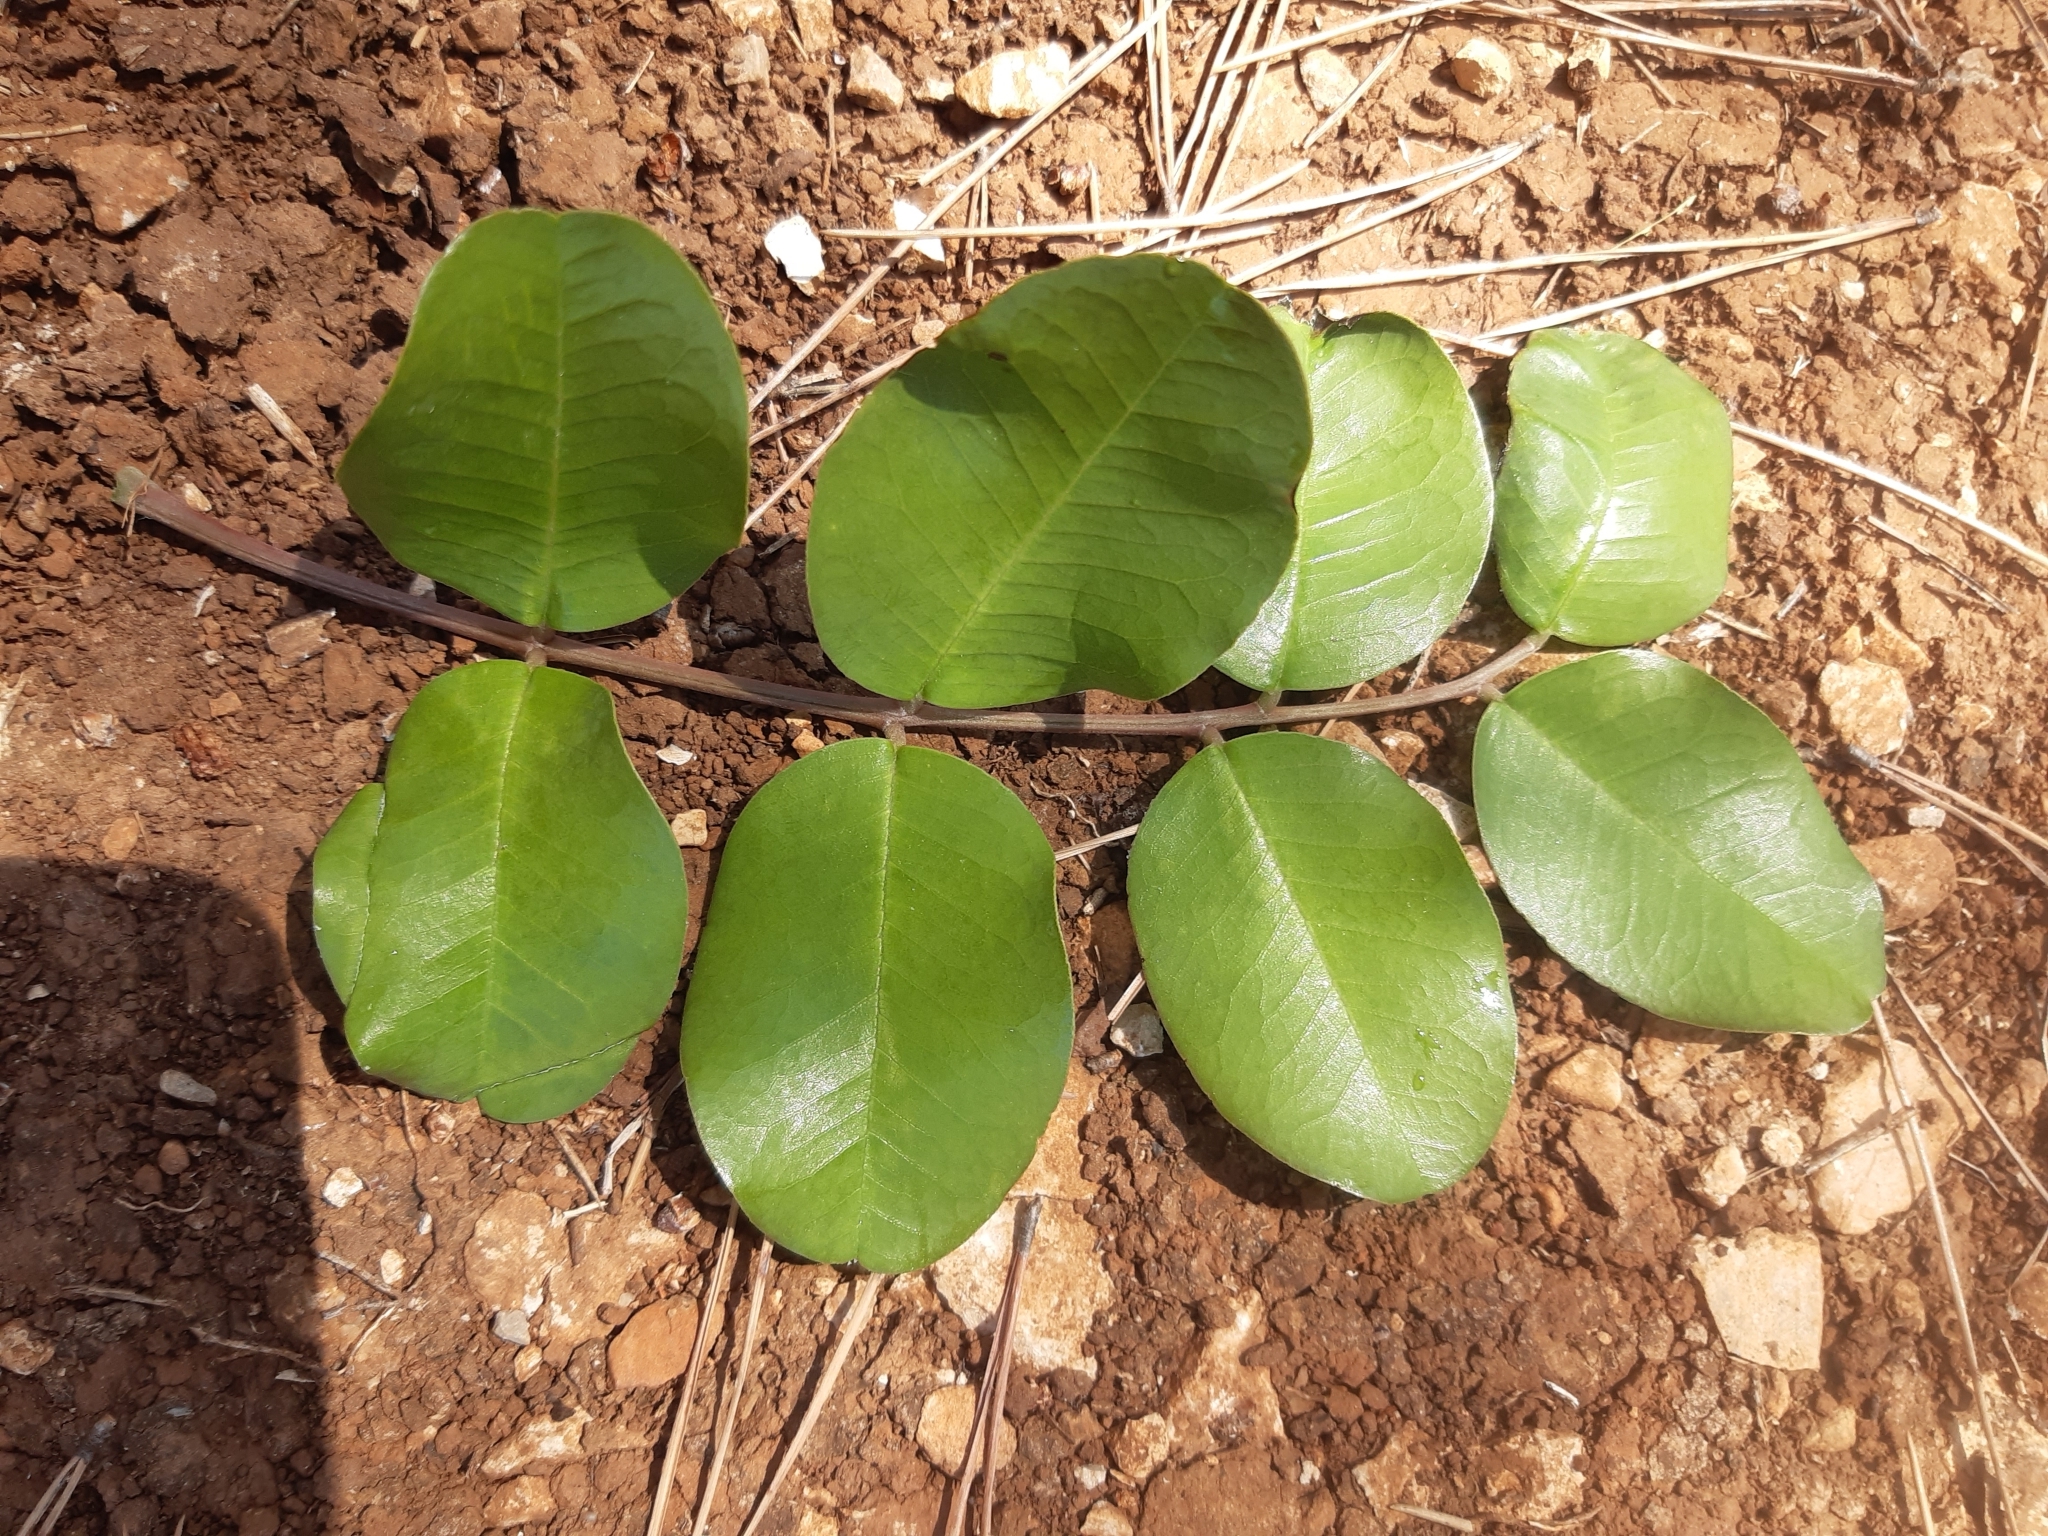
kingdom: Plantae
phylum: Tracheophyta
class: Magnoliopsida
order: Fabales
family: Fabaceae
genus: Ceratonia
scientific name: Ceratonia siliqua
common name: Carob
